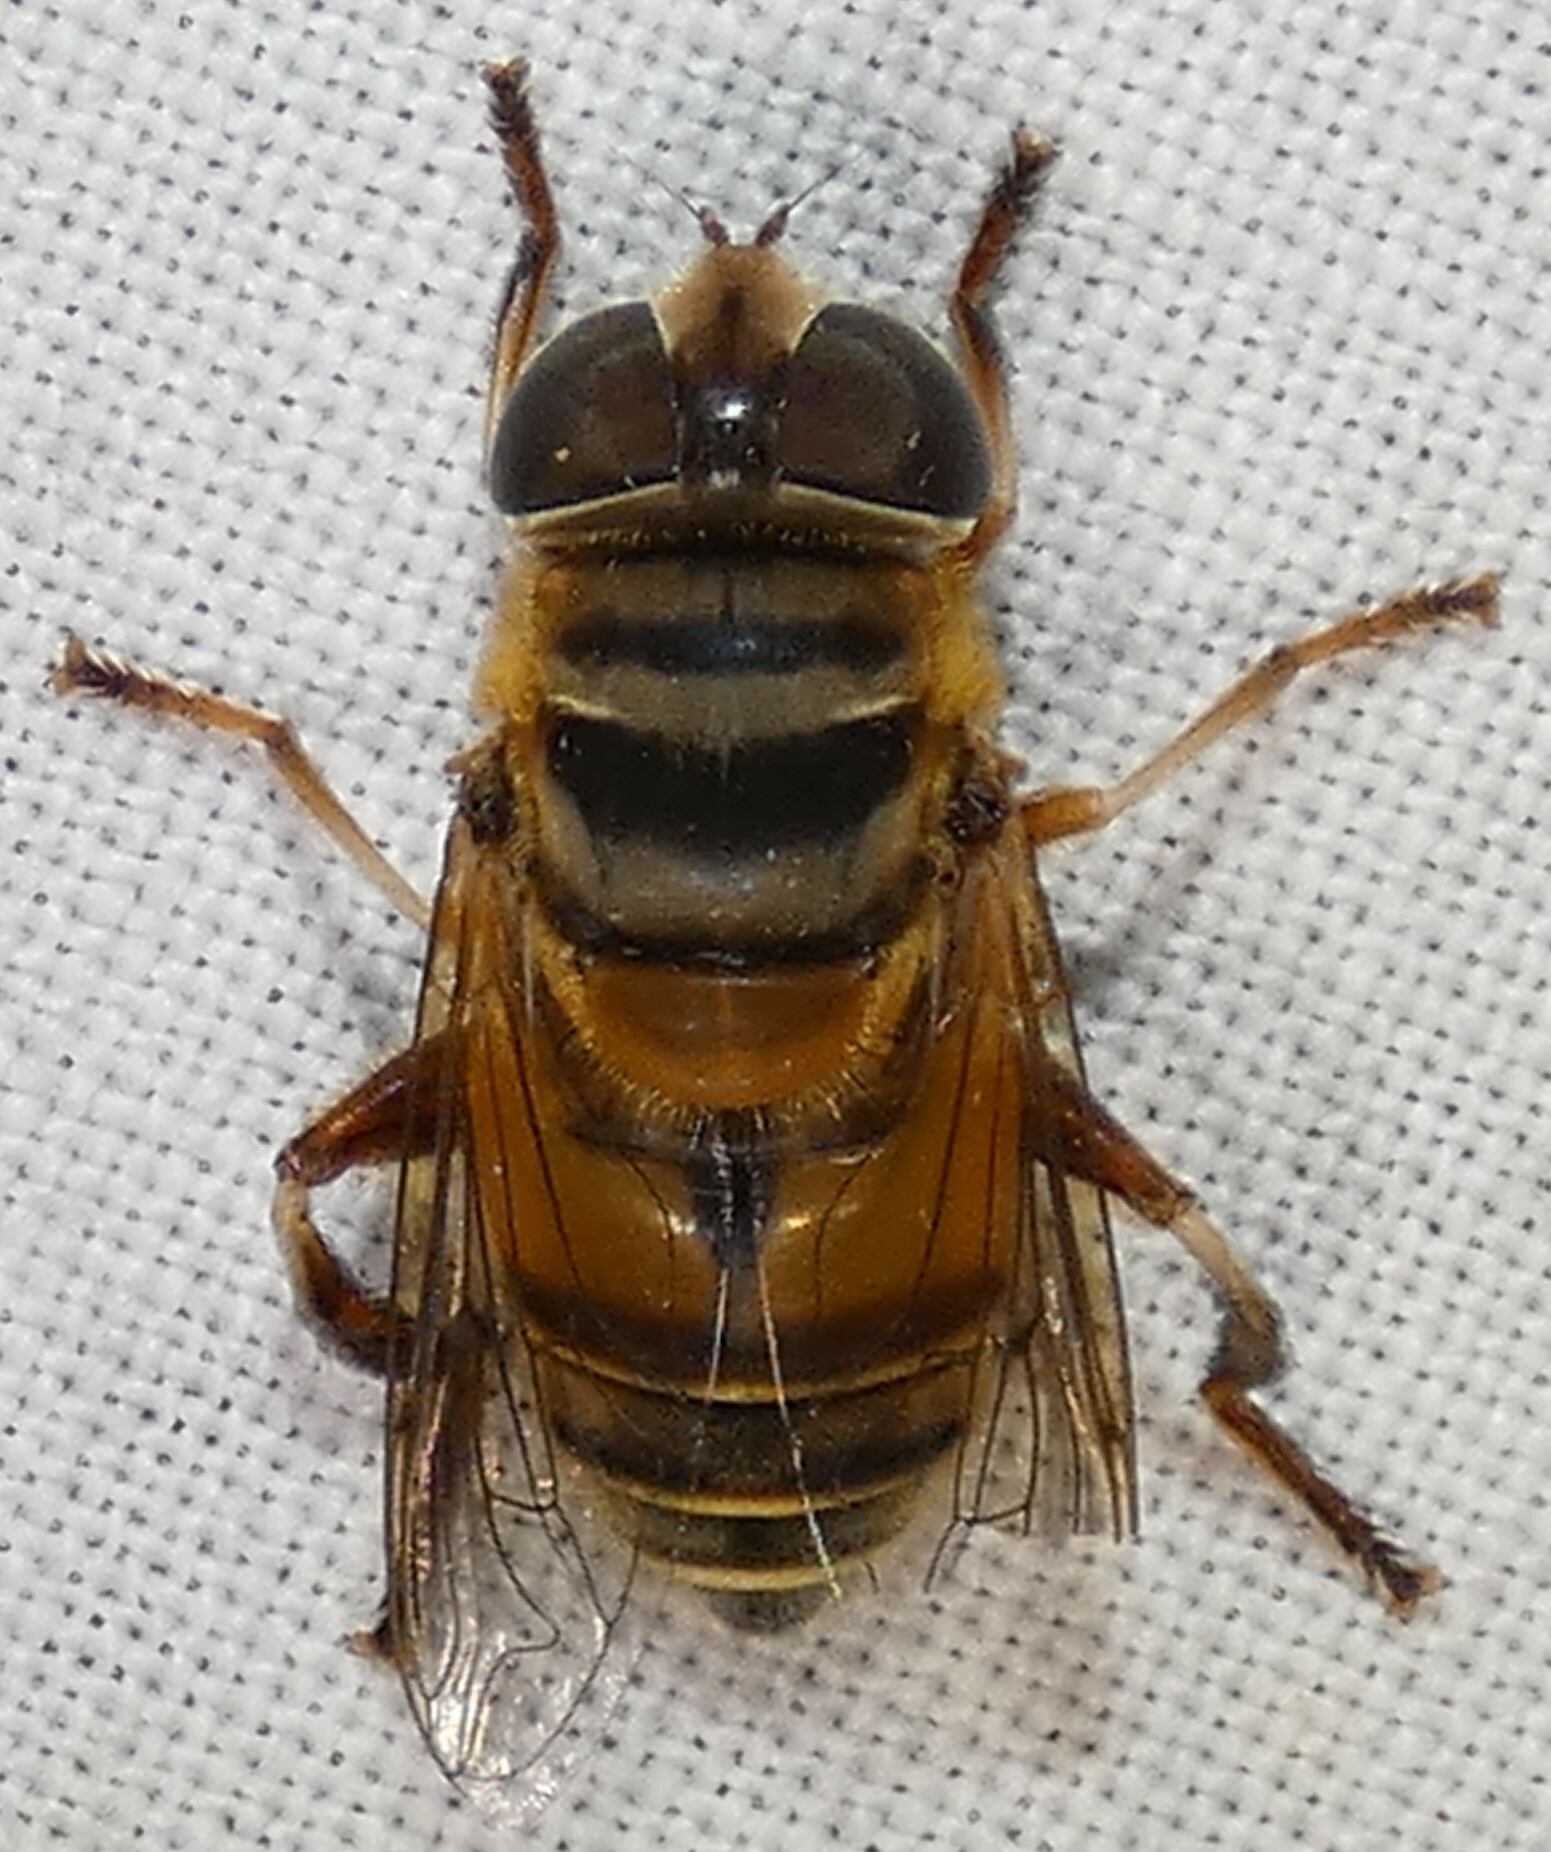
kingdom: Animalia
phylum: Arthropoda
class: Insecta
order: Diptera
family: Syrphidae
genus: Palpada
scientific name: Palpada vinetorum
